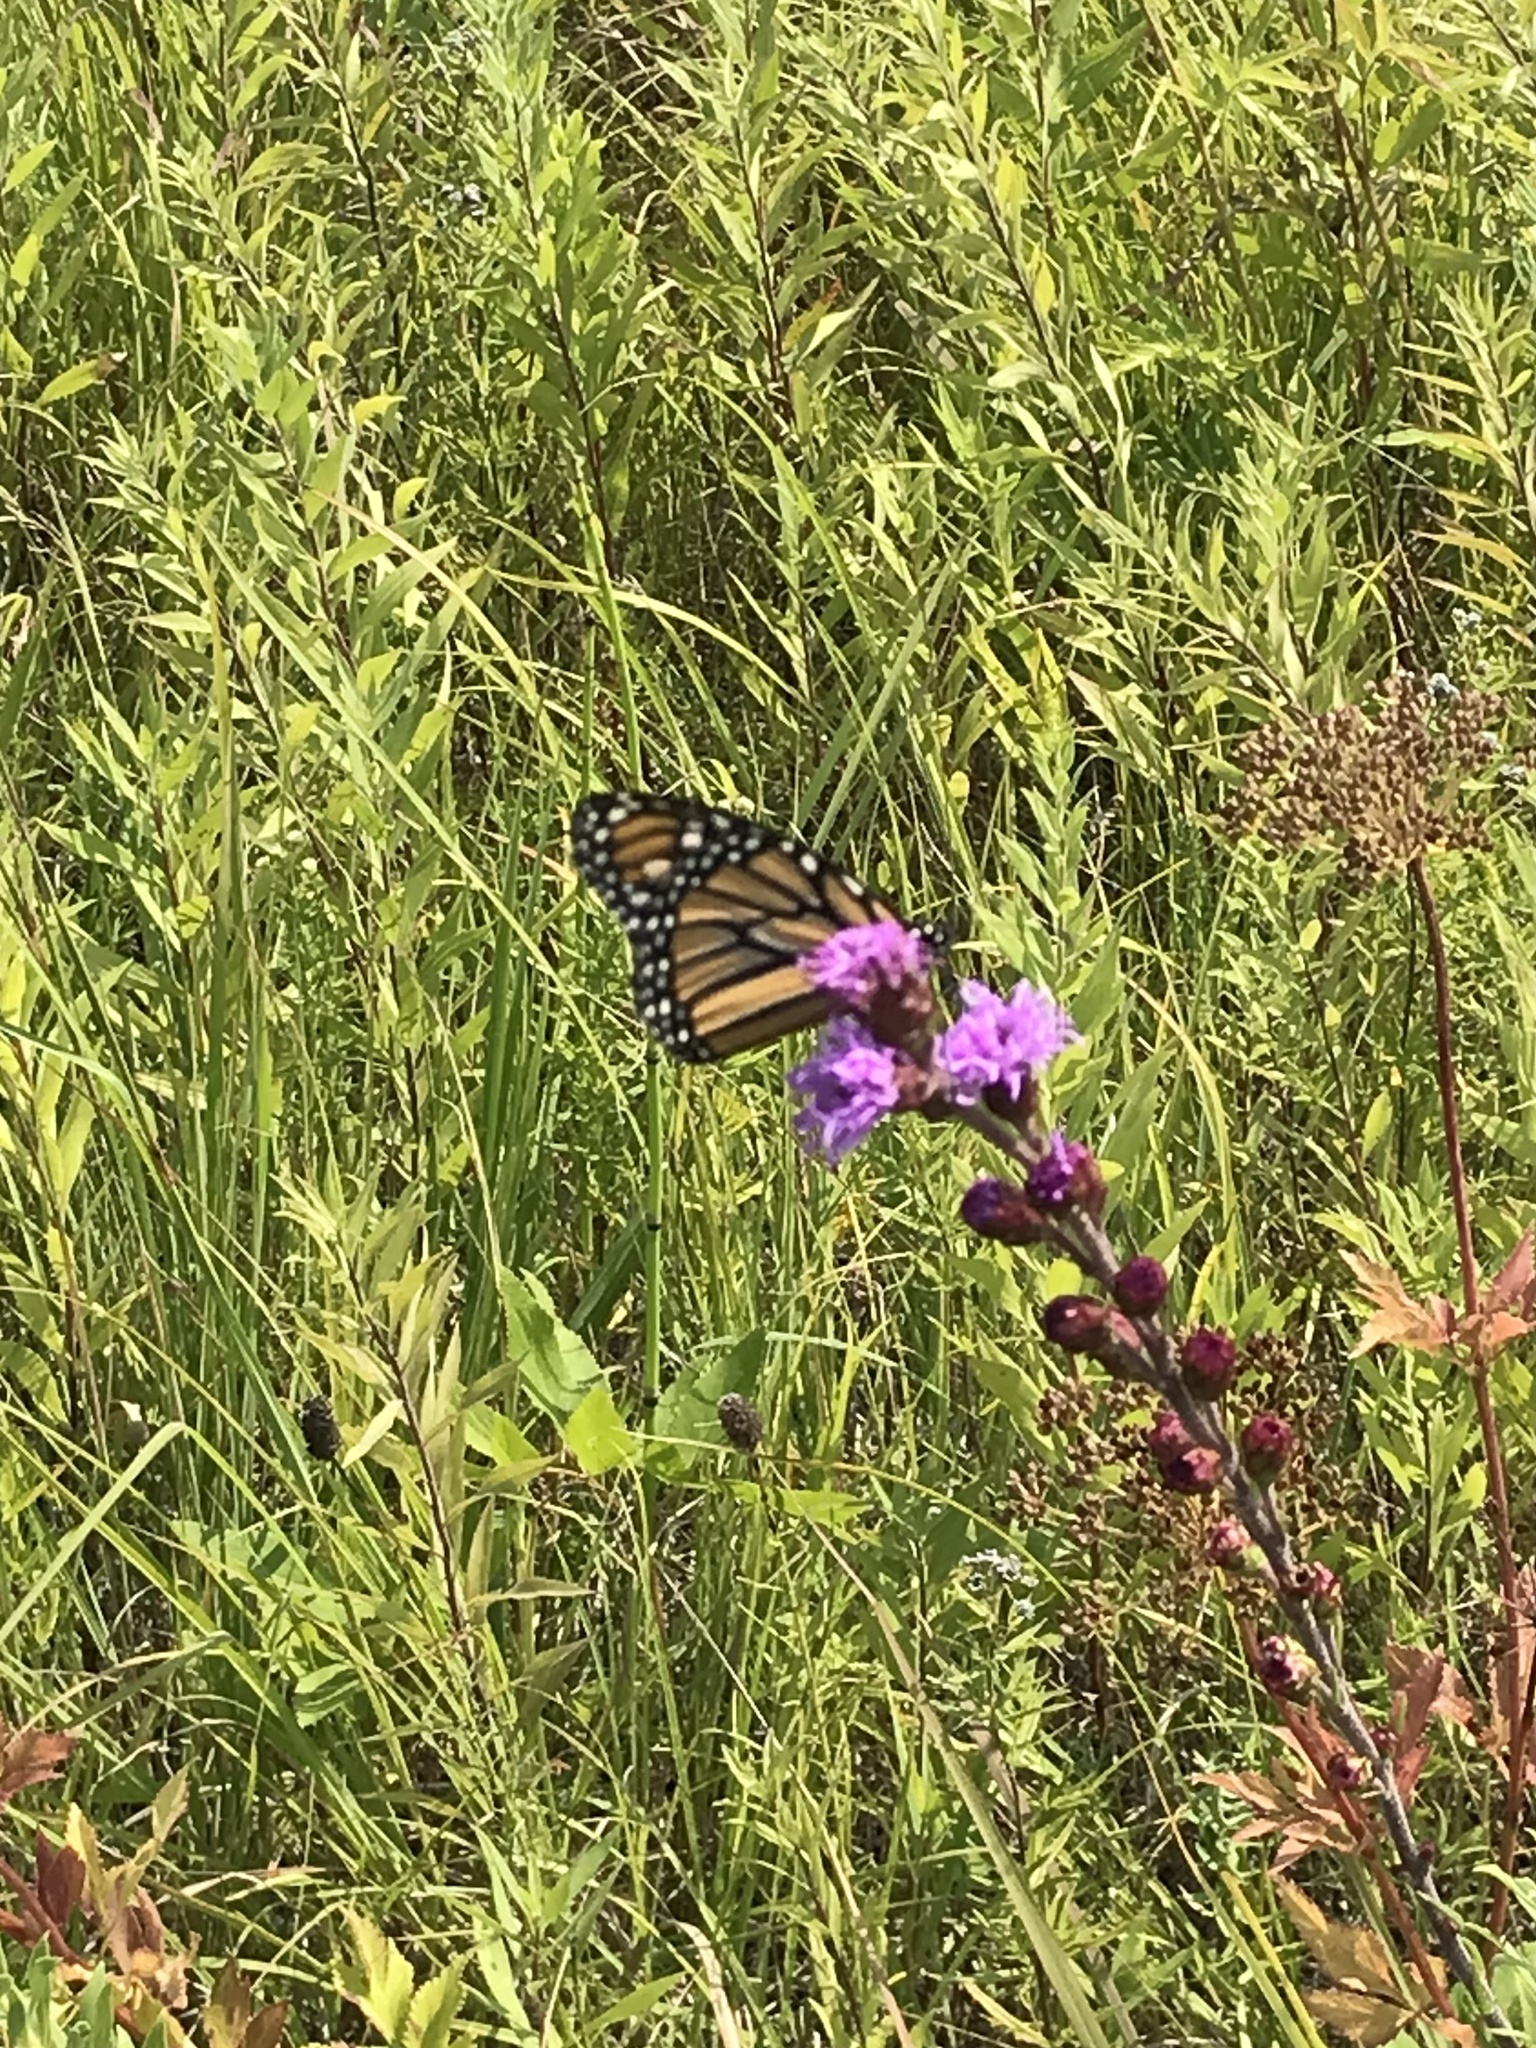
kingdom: Animalia
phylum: Arthropoda
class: Insecta
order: Lepidoptera
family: Nymphalidae
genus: Danaus
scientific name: Danaus plexippus
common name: Monarch
